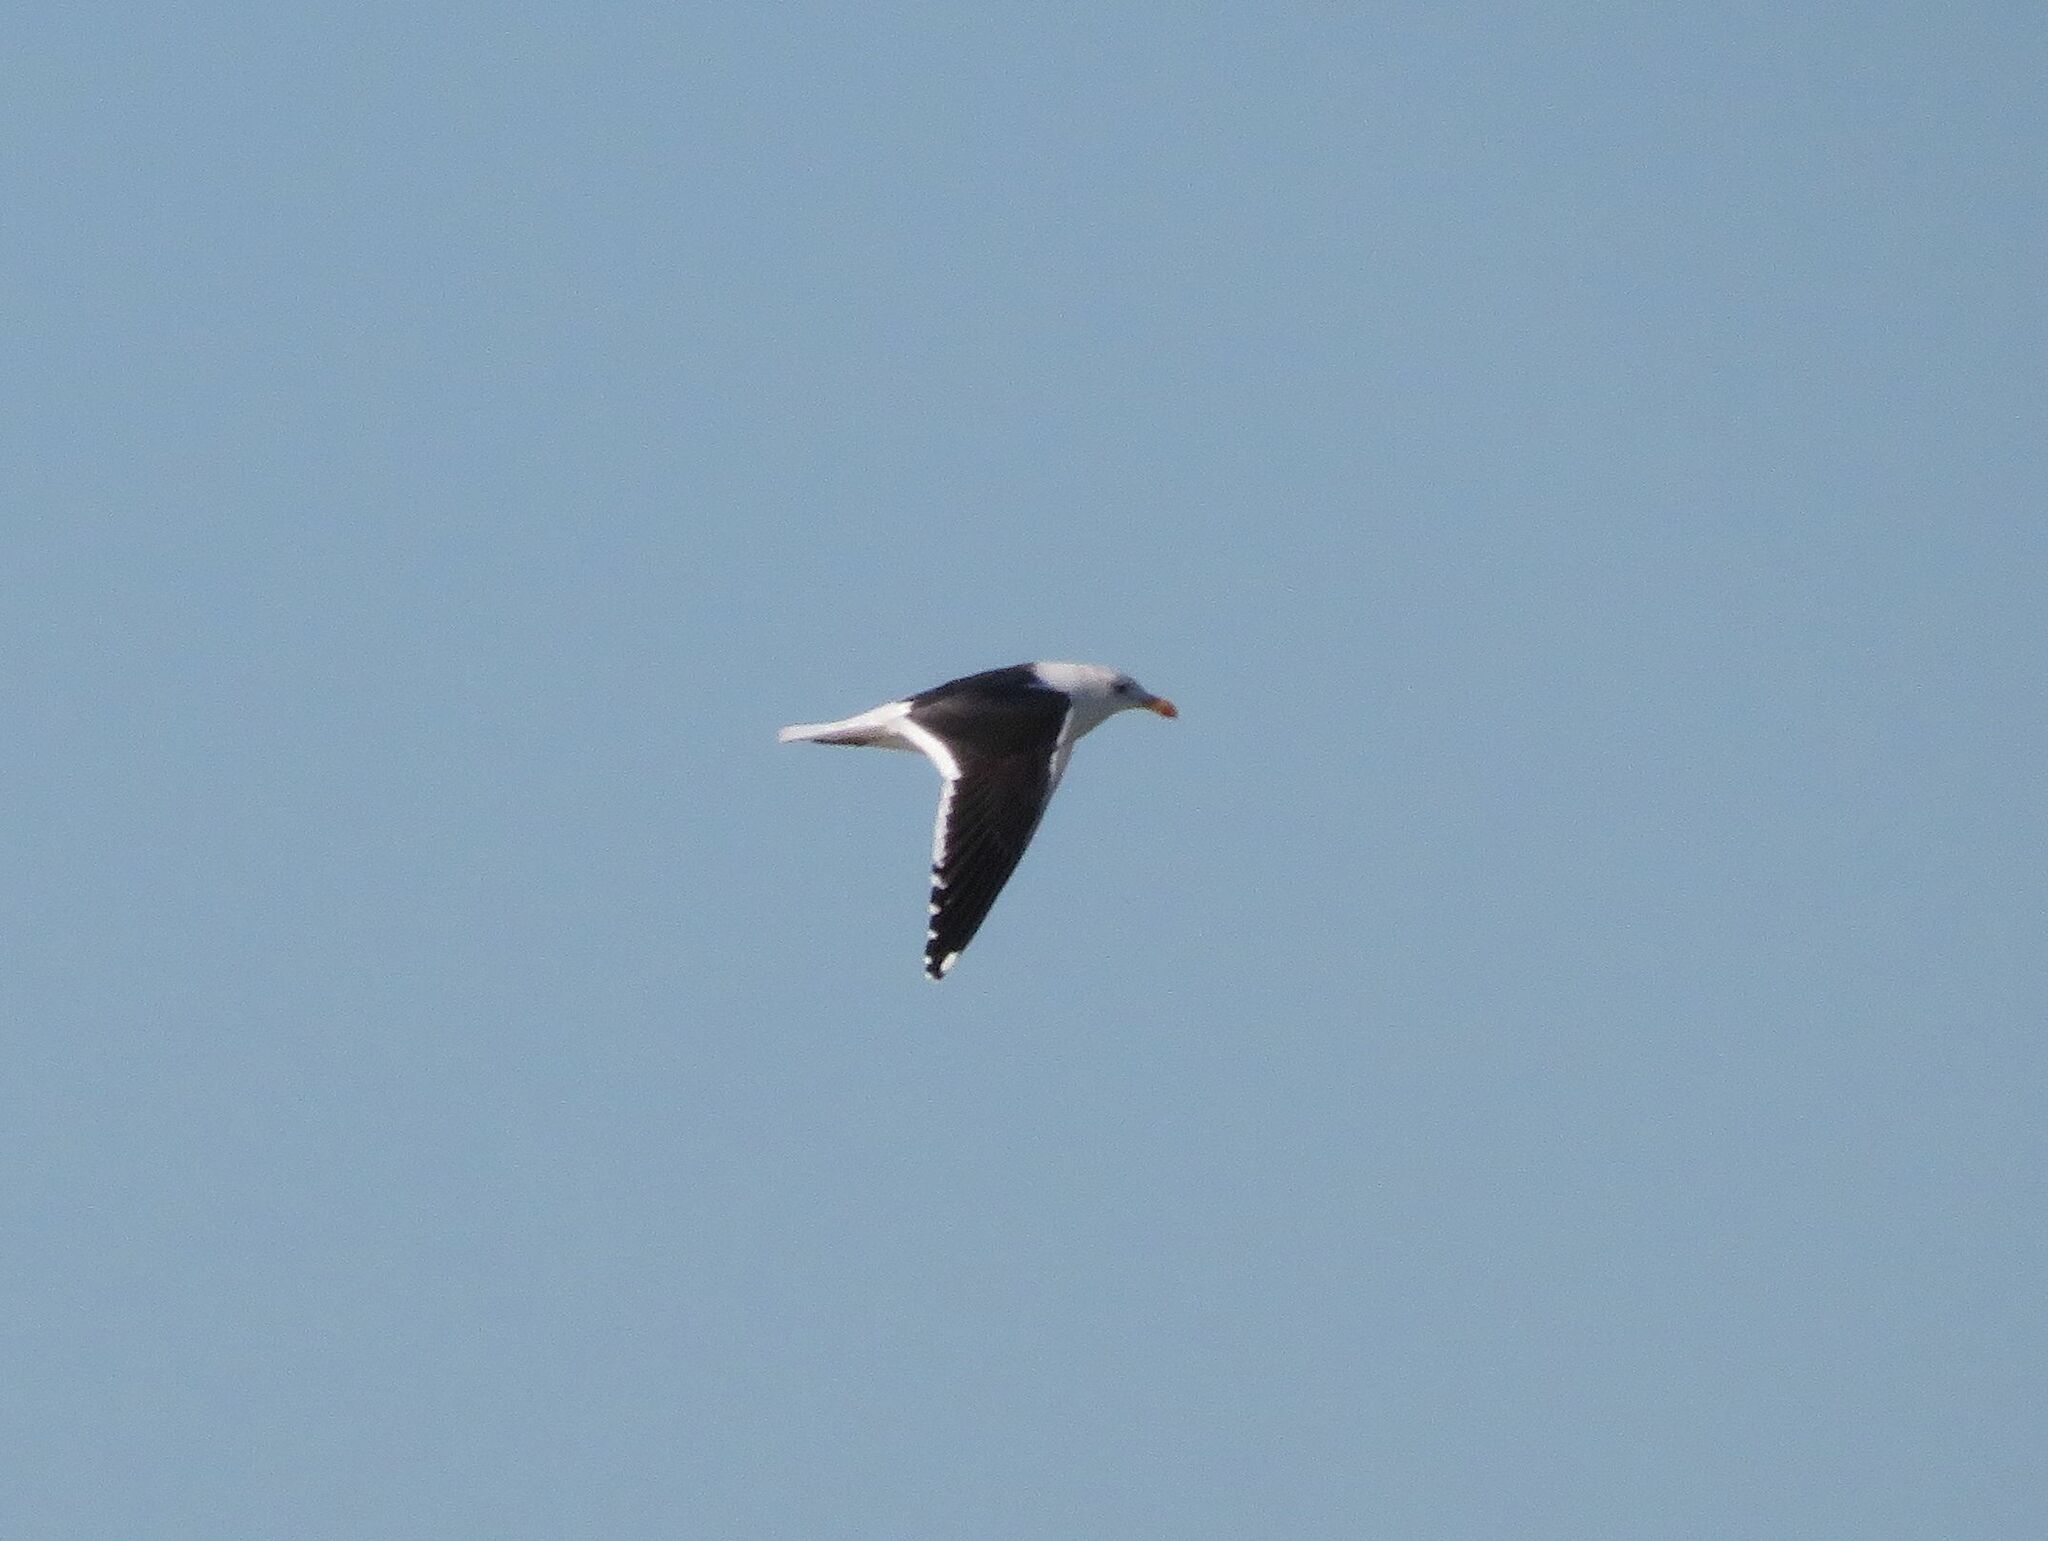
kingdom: Animalia
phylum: Chordata
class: Aves
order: Charadriiformes
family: Laridae
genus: Larus
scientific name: Larus dominicanus
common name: Kelp gull
